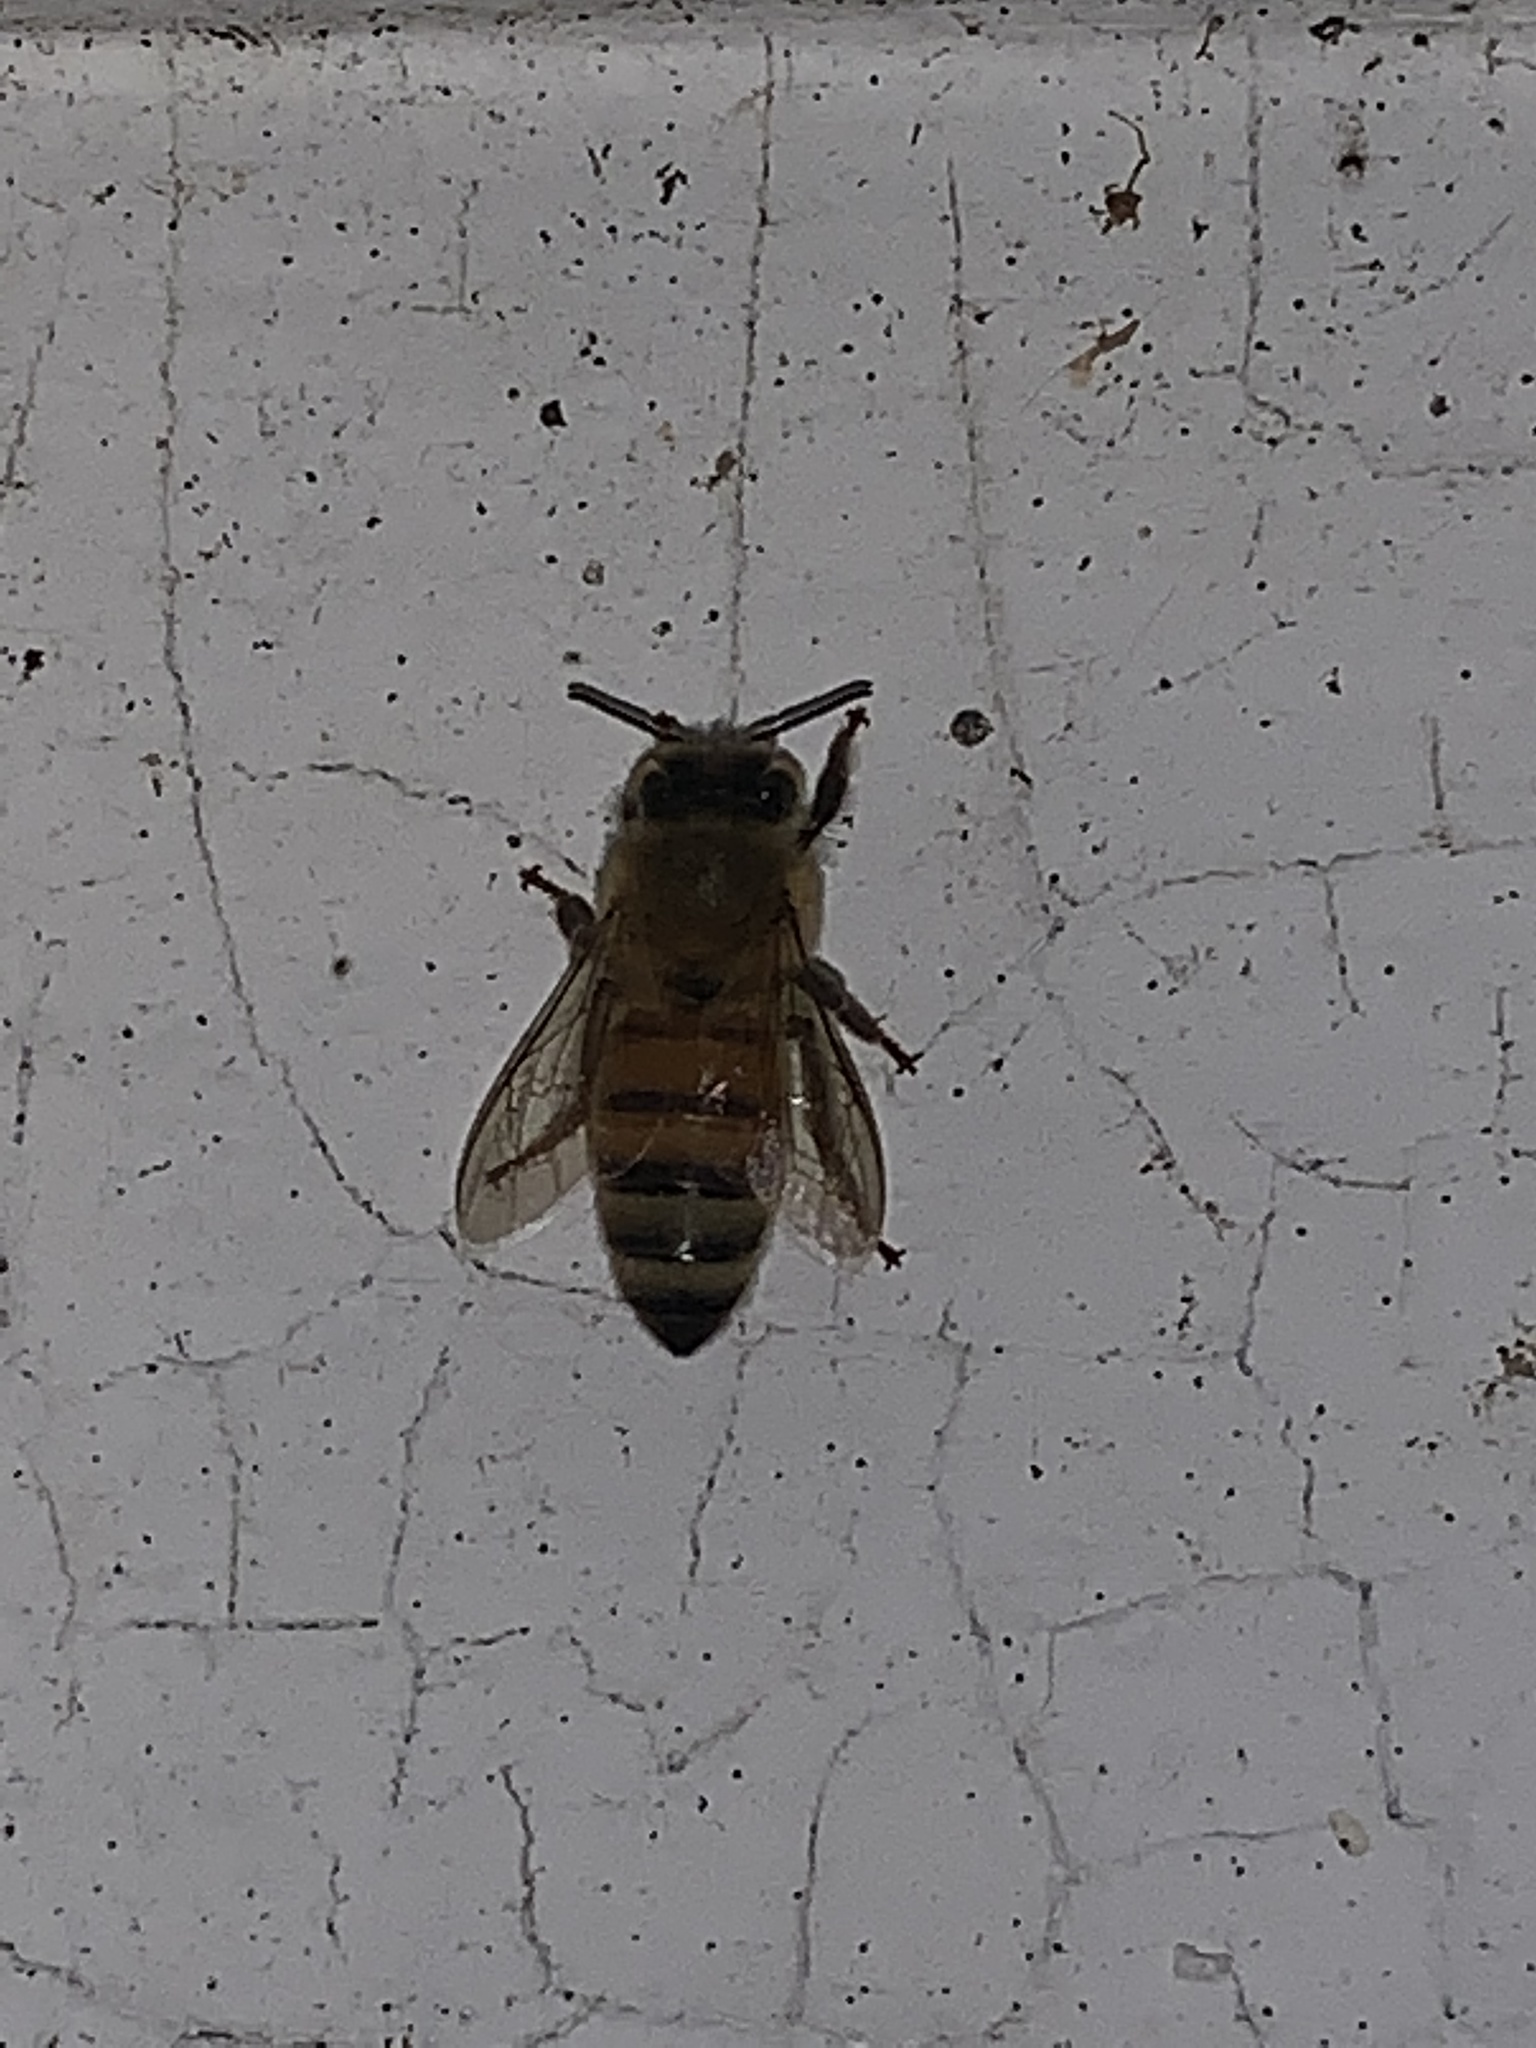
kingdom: Animalia
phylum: Arthropoda
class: Insecta
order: Hymenoptera
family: Apidae
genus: Apis
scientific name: Apis mellifera
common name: Honey bee
